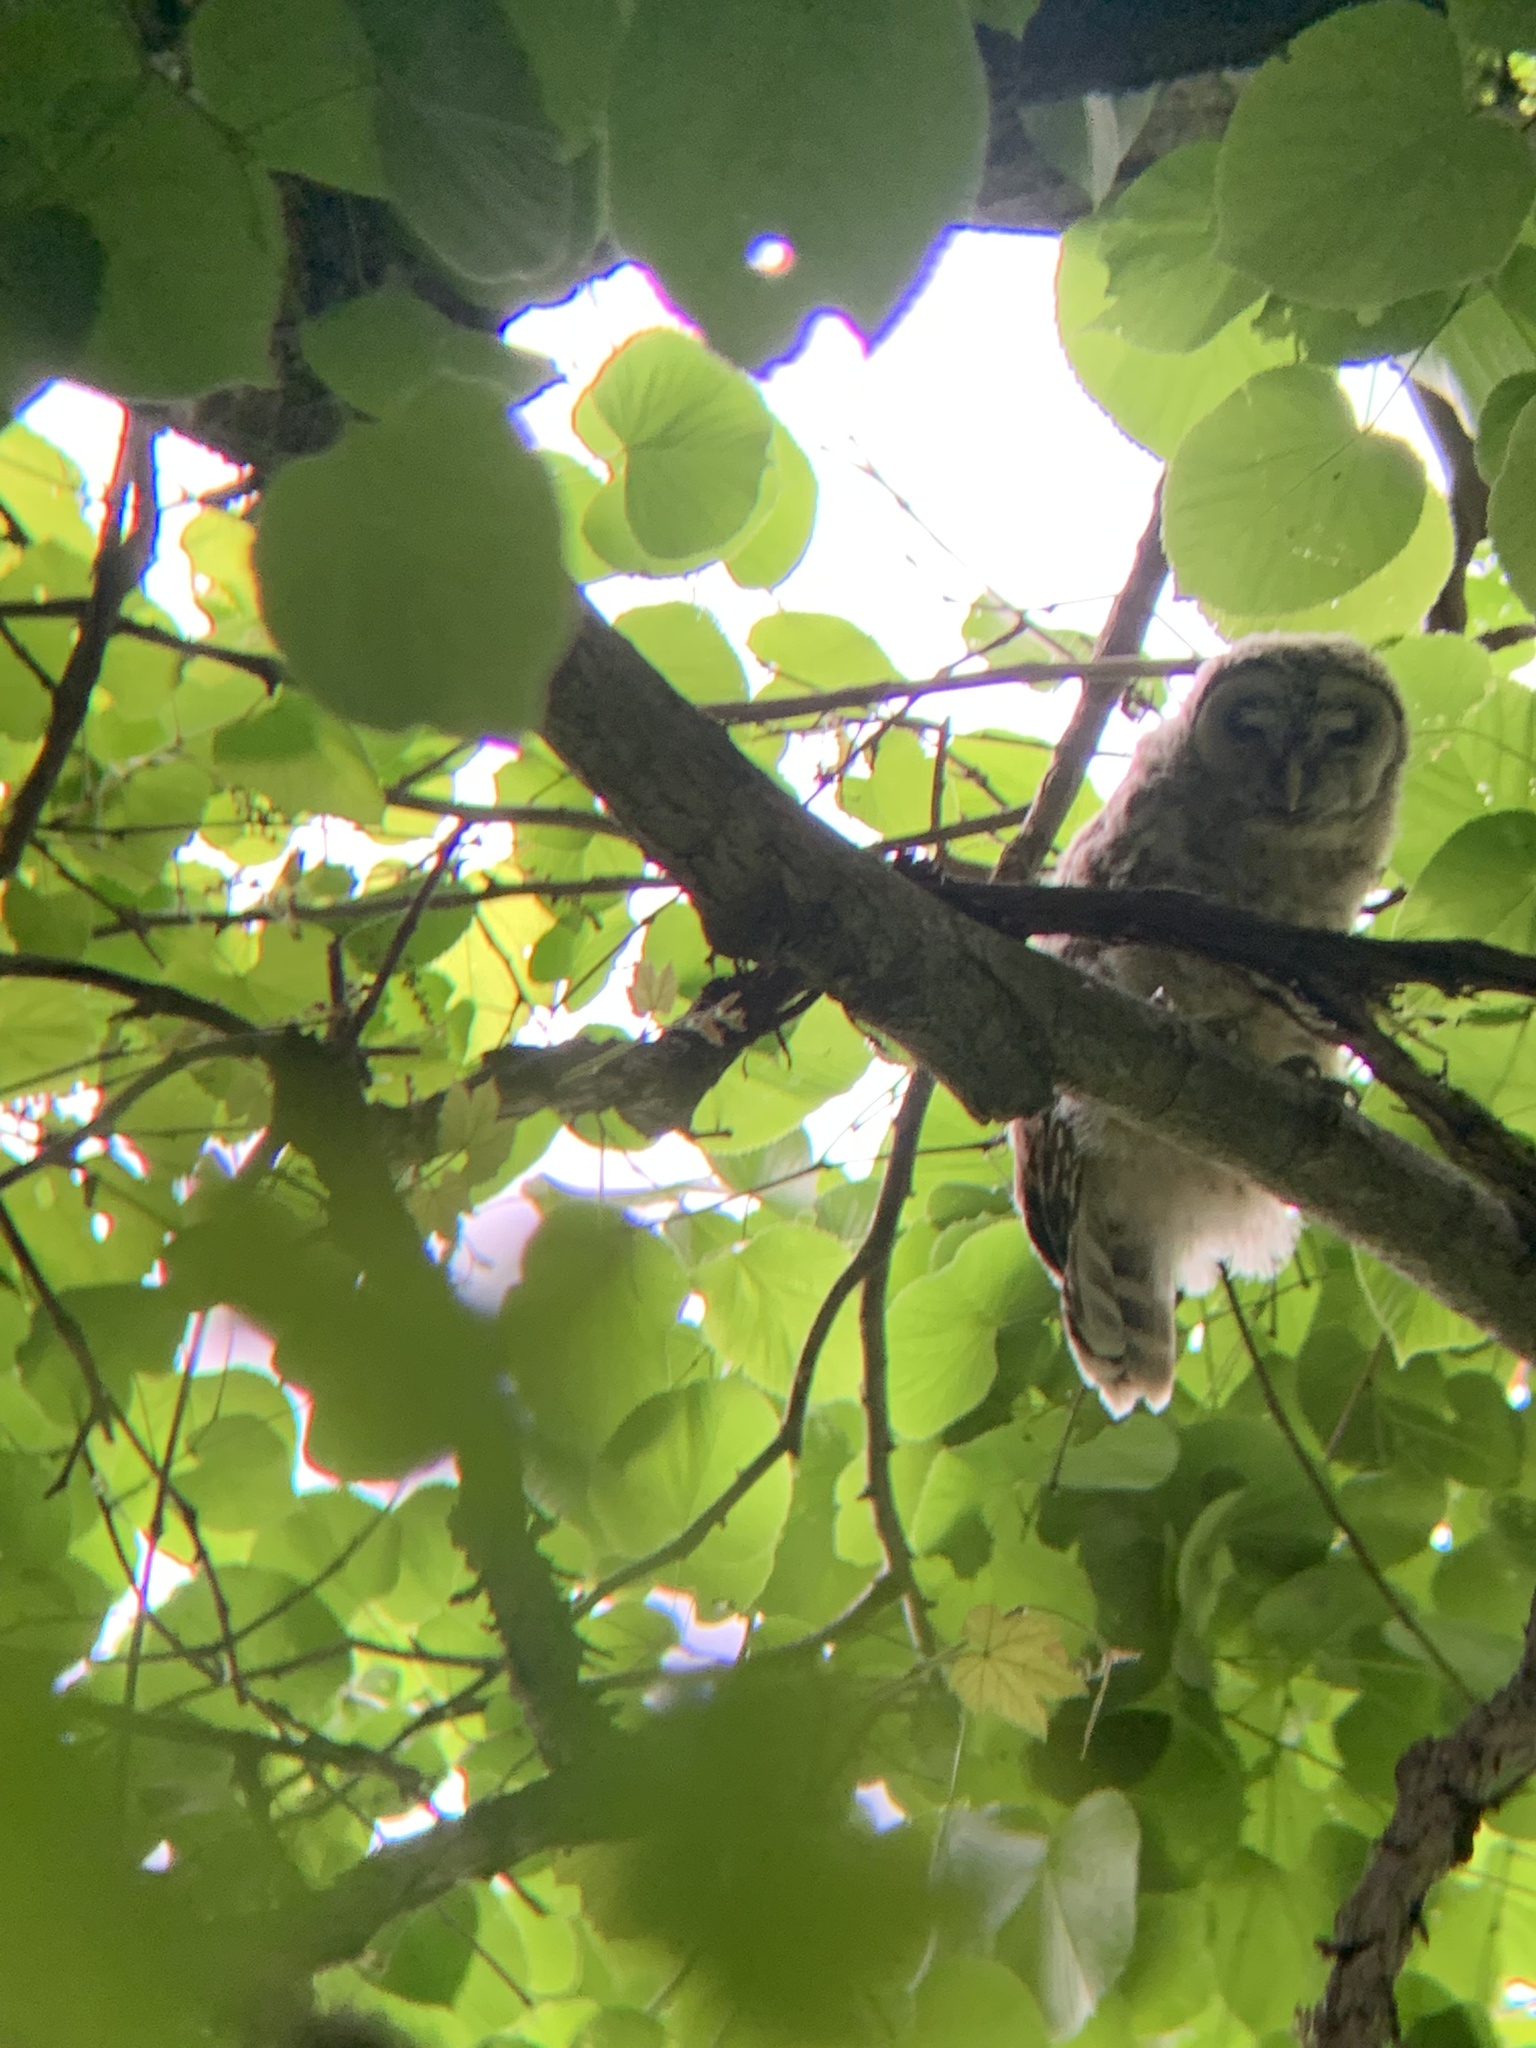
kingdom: Animalia
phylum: Chordata
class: Aves
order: Strigiformes
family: Strigidae
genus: Strix
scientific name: Strix varia
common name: Barred owl
